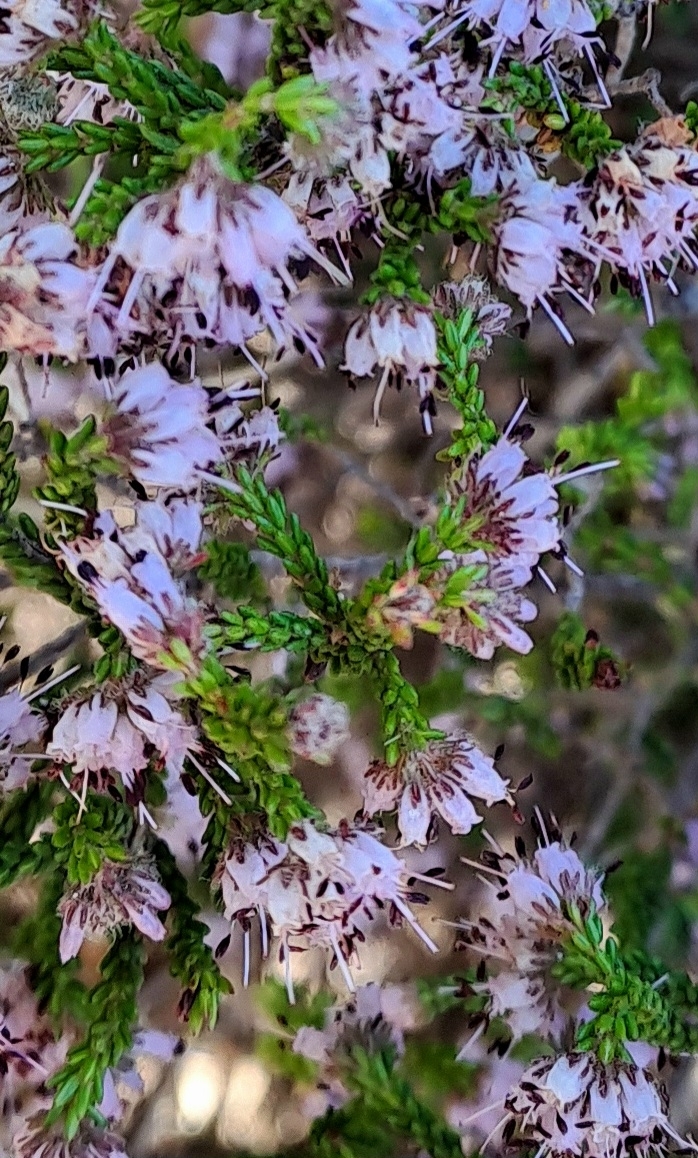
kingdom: Plantae
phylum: Tracheophyta
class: Magnoliopsida
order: Ericales
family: Ericaceae
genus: Erica
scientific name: Erica ericoides
